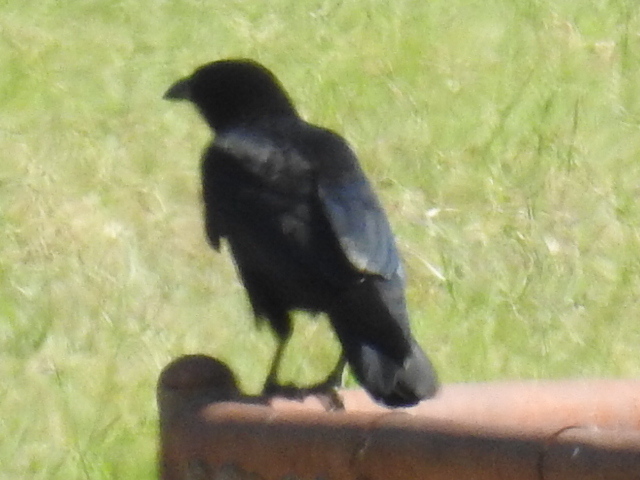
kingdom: Animalia
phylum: Chordata
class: Aves
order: Passeriformes
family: Corvidae
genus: Corvus
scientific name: Corvus brachyrhynchos
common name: American crow
